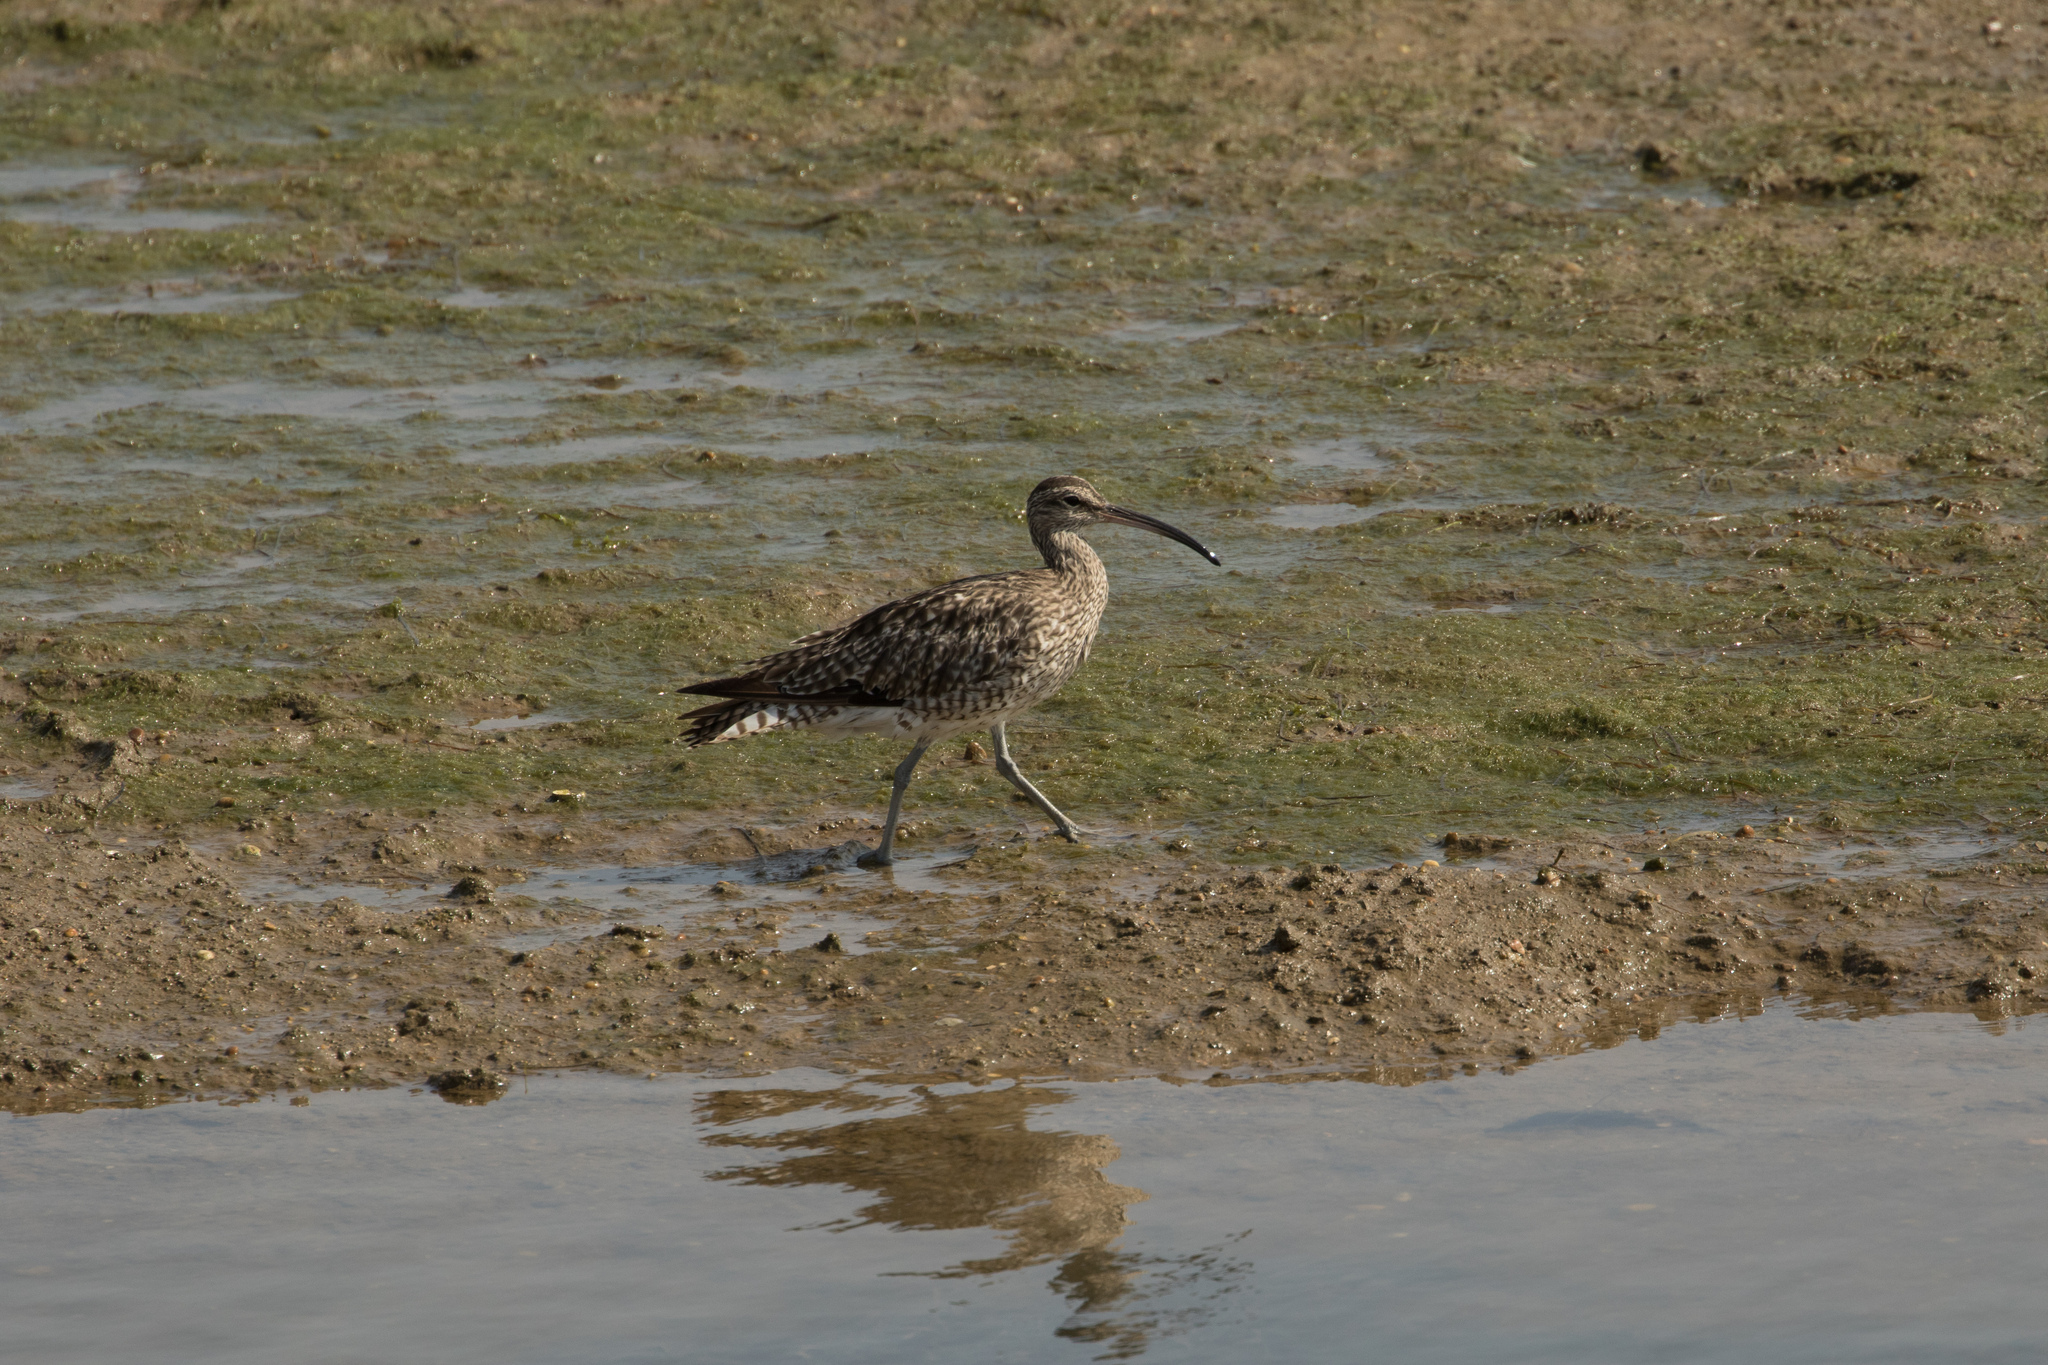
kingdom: Animalia
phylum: Chordata
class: Aves
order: Charadriiformes
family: Scolopacidae
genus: Numenius
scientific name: Numenius phaeopus
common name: Whimbrel
